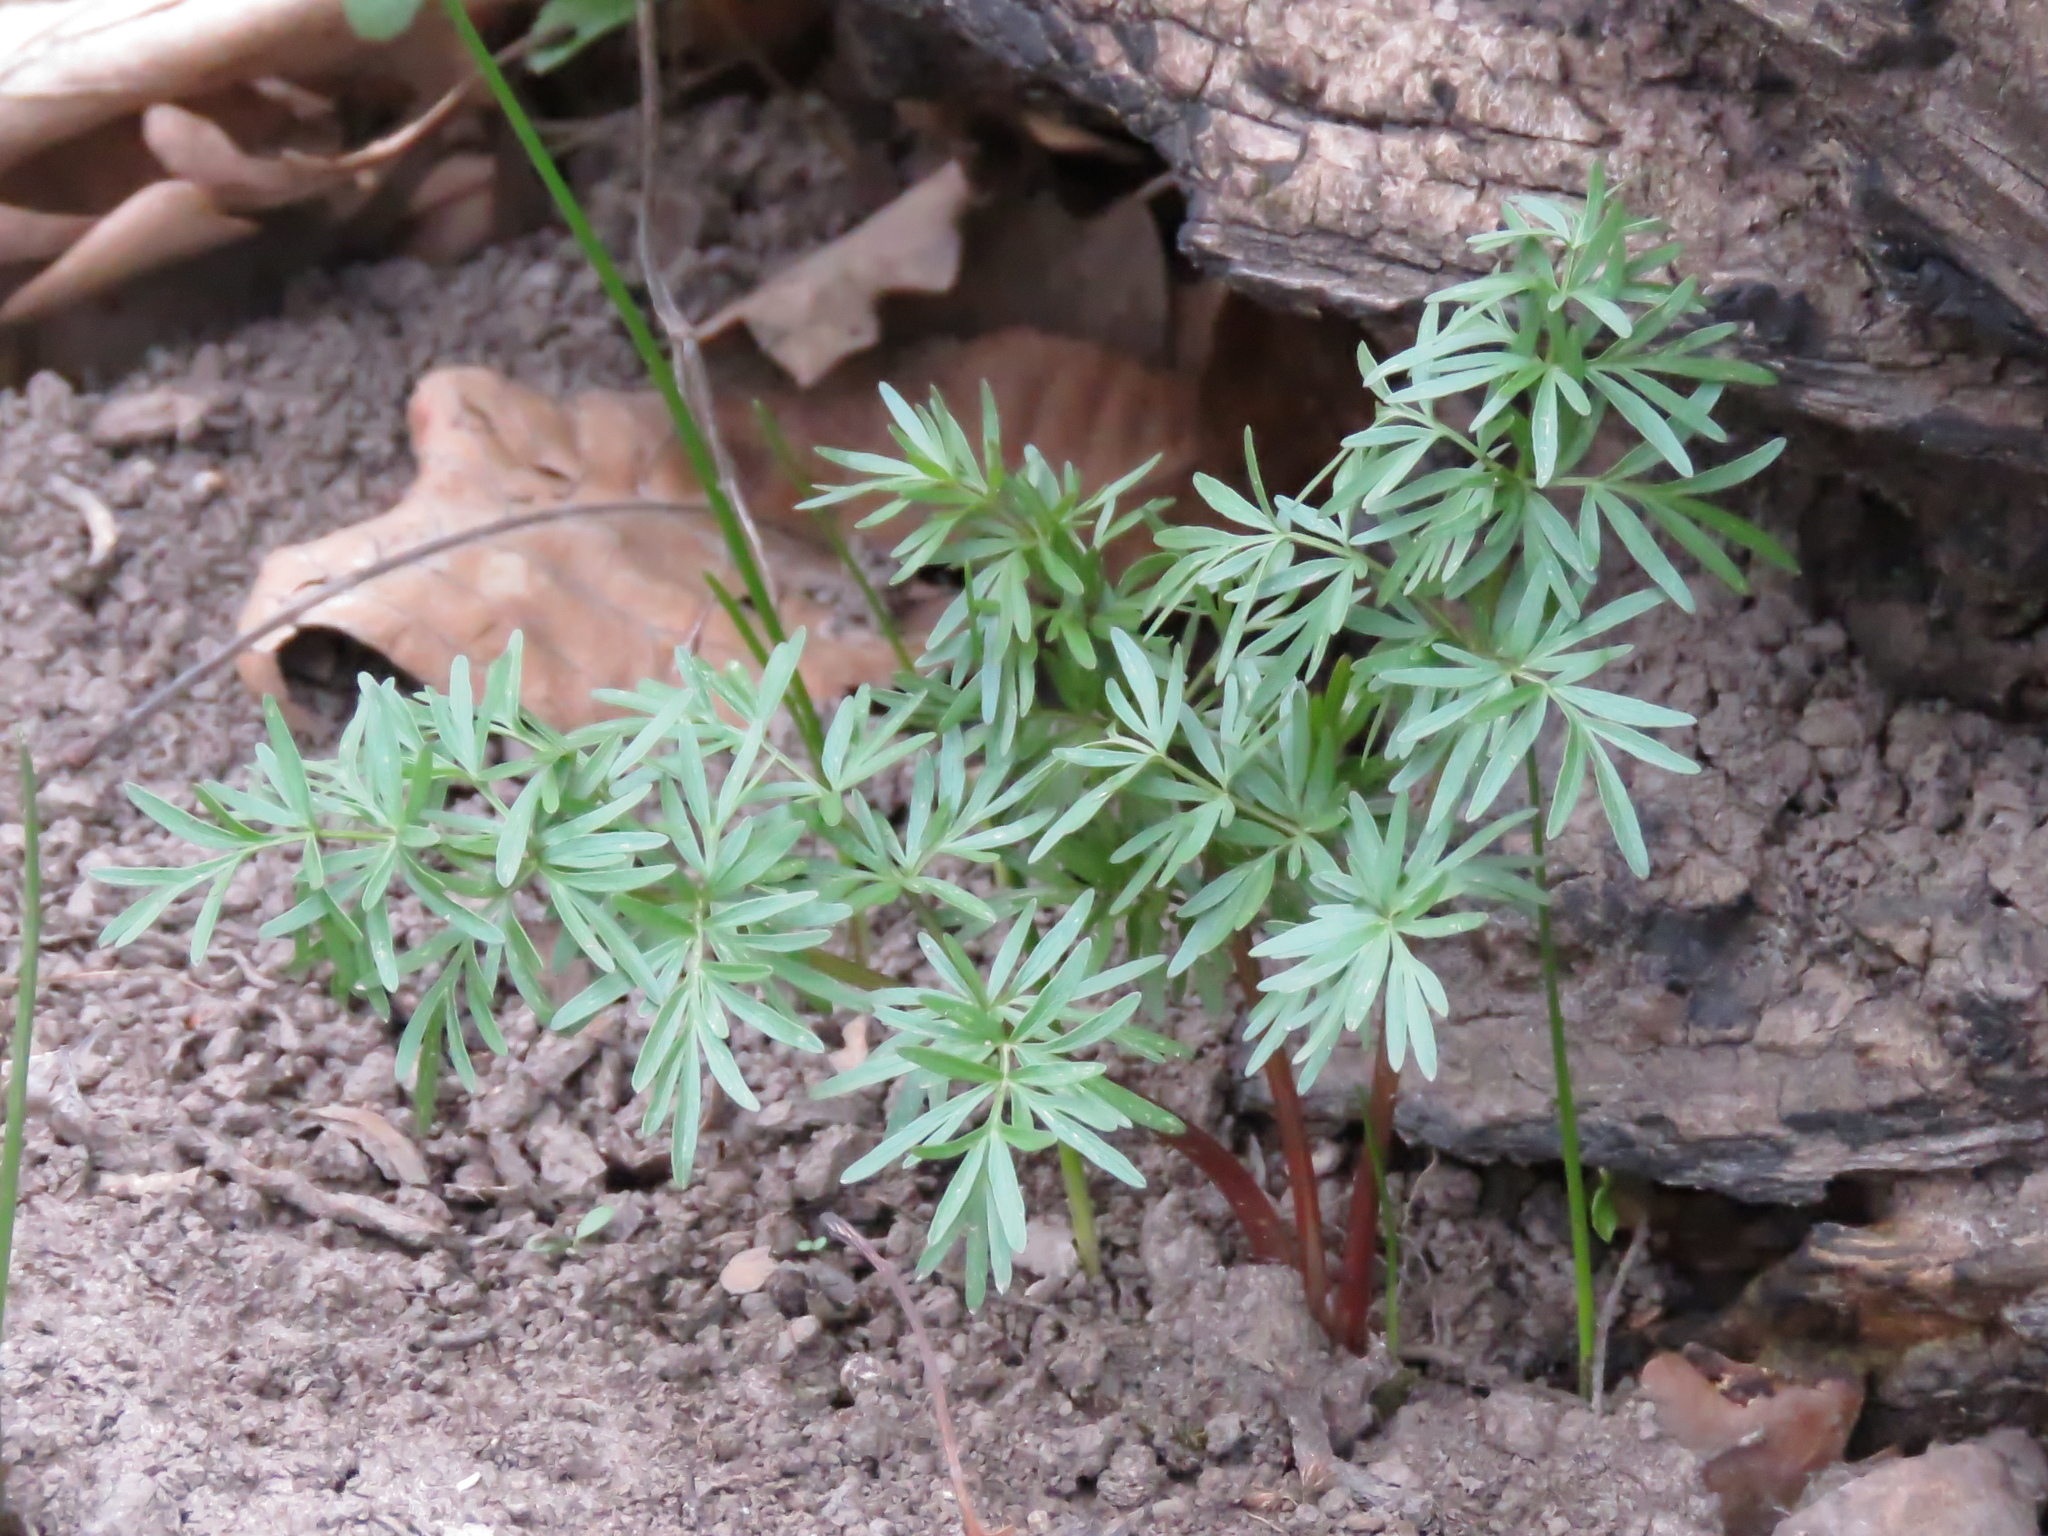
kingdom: Plantae
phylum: Tracheophyta
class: Magnoliopsida
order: Apiales
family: Apiaceae
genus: Perideridia
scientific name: Perideridia americana
